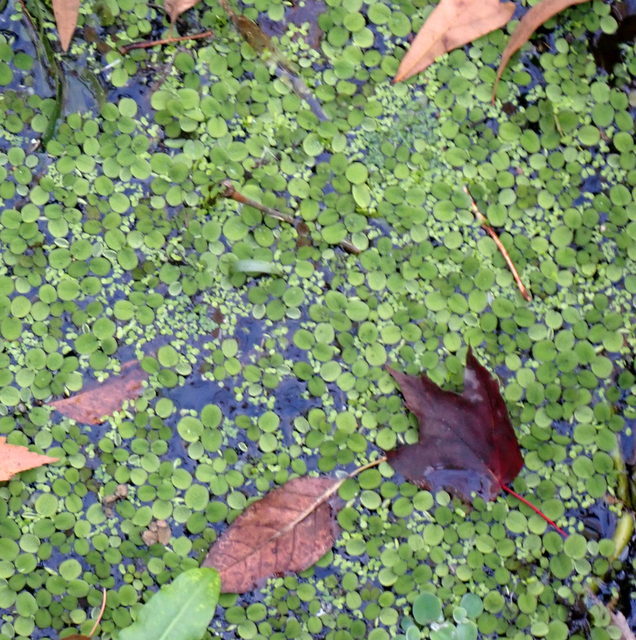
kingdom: Plantae
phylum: Tracheophyta
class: Polypodiopsida
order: Salviniales
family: Salviniaceae
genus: Salvinia
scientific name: Salvinia minima
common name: Water spangles
